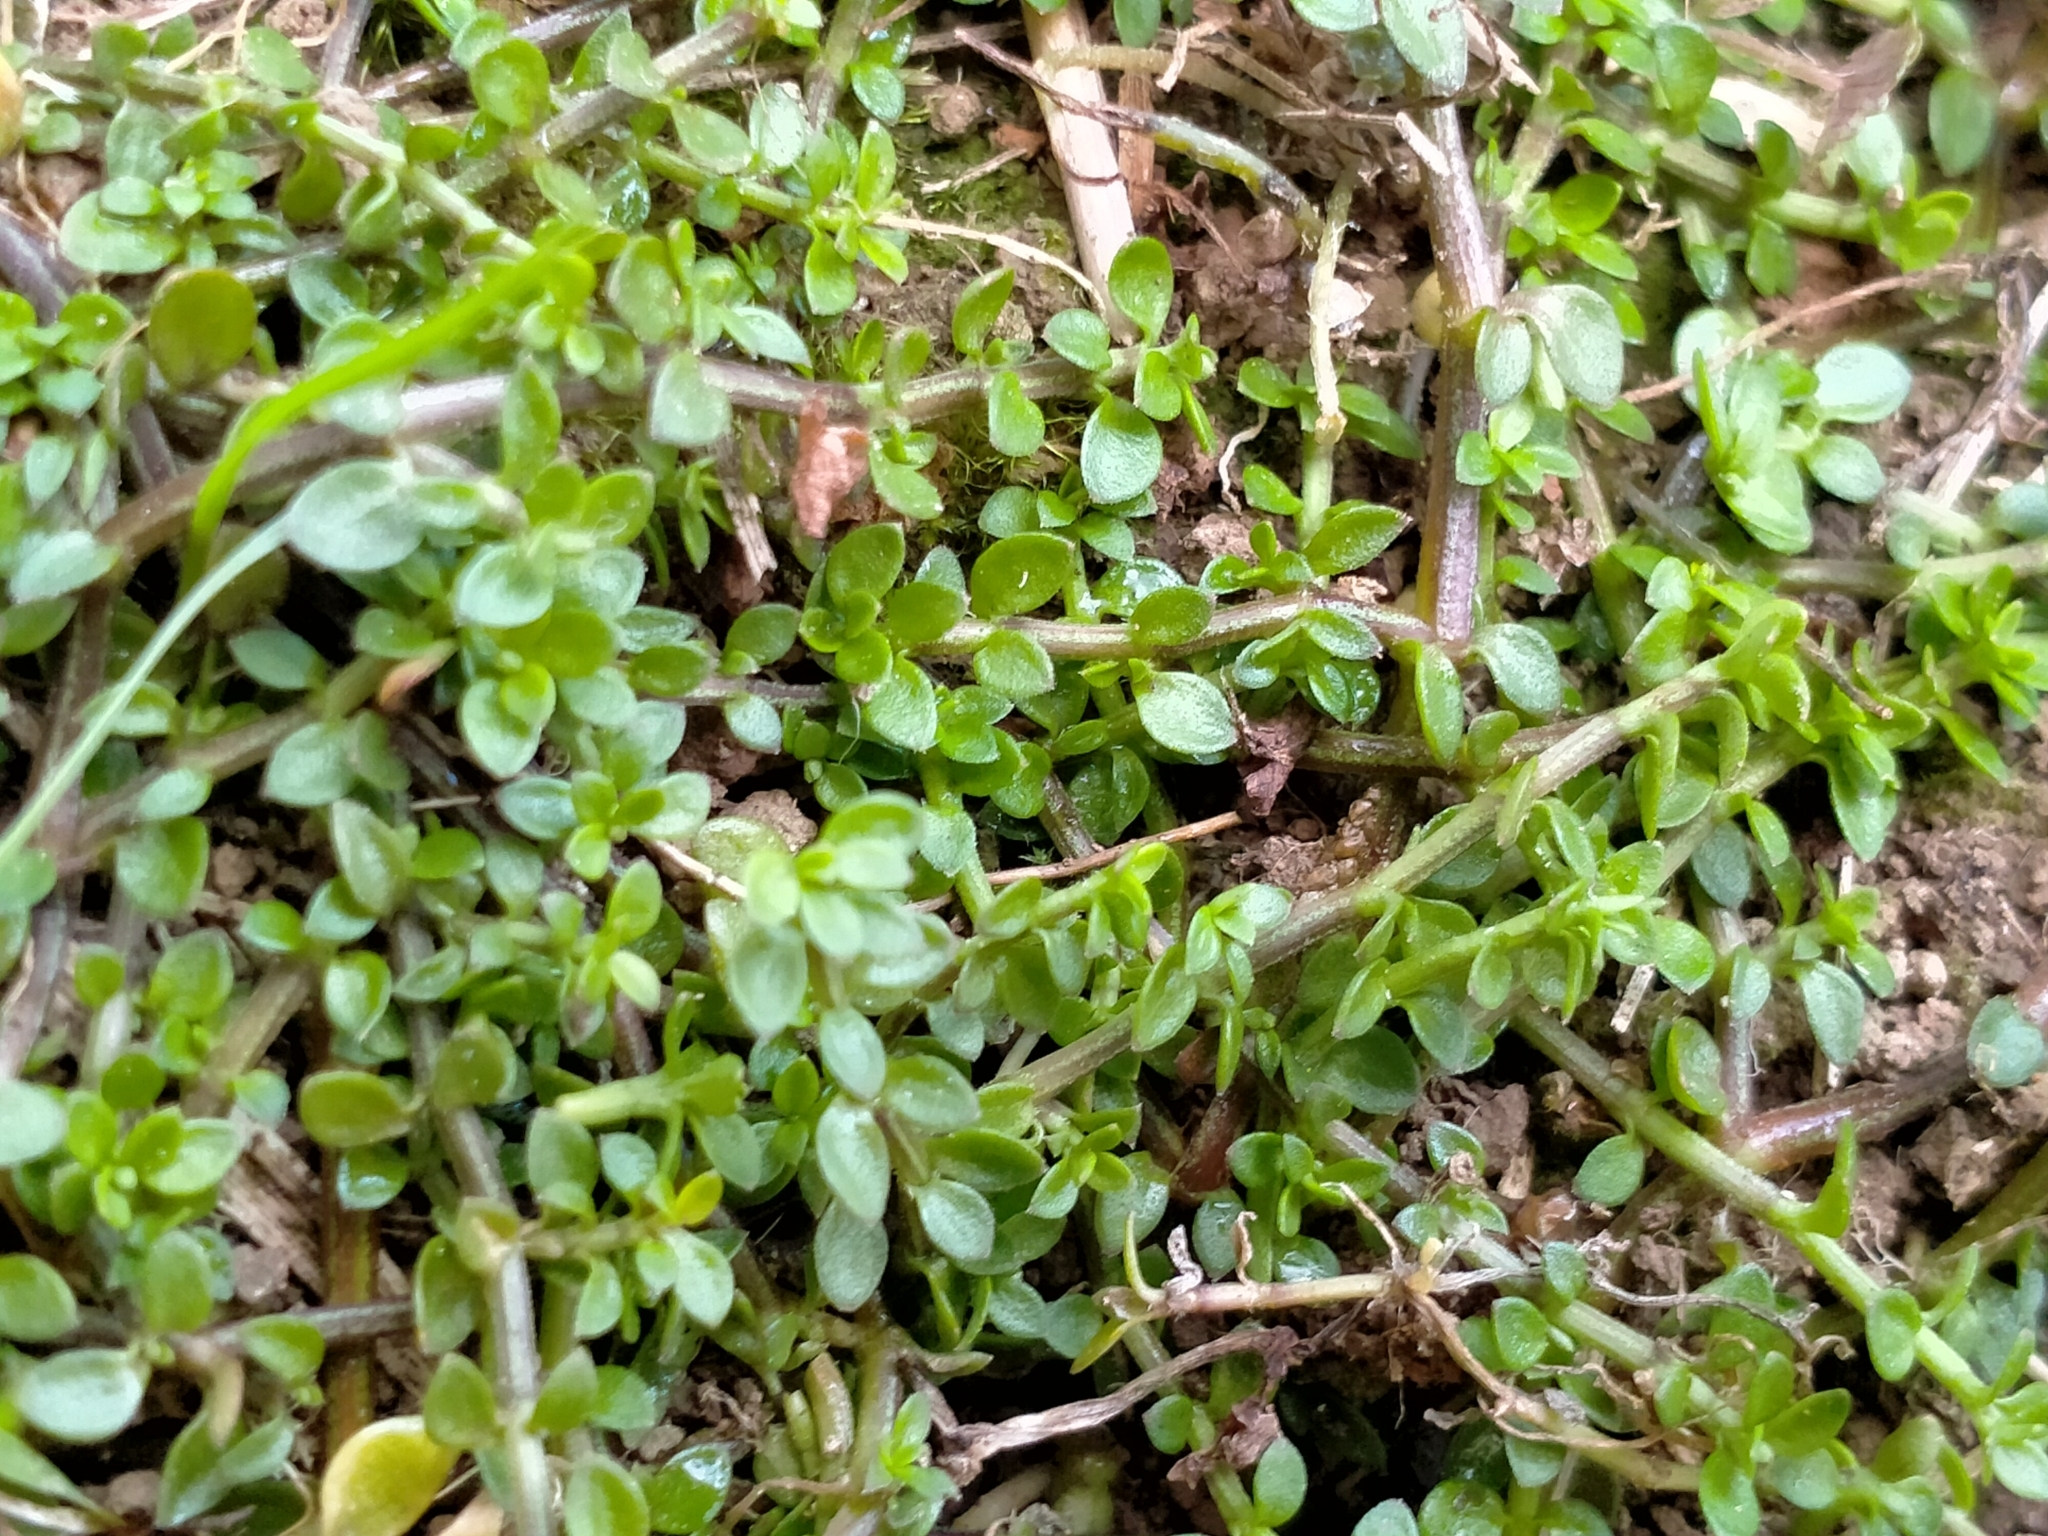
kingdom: Plantae
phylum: Tracheophyta
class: Magnoliopsida
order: Lamiales
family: Tetrachondraceae
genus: Tetrachondra
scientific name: Tetrachondra hamiltonii
